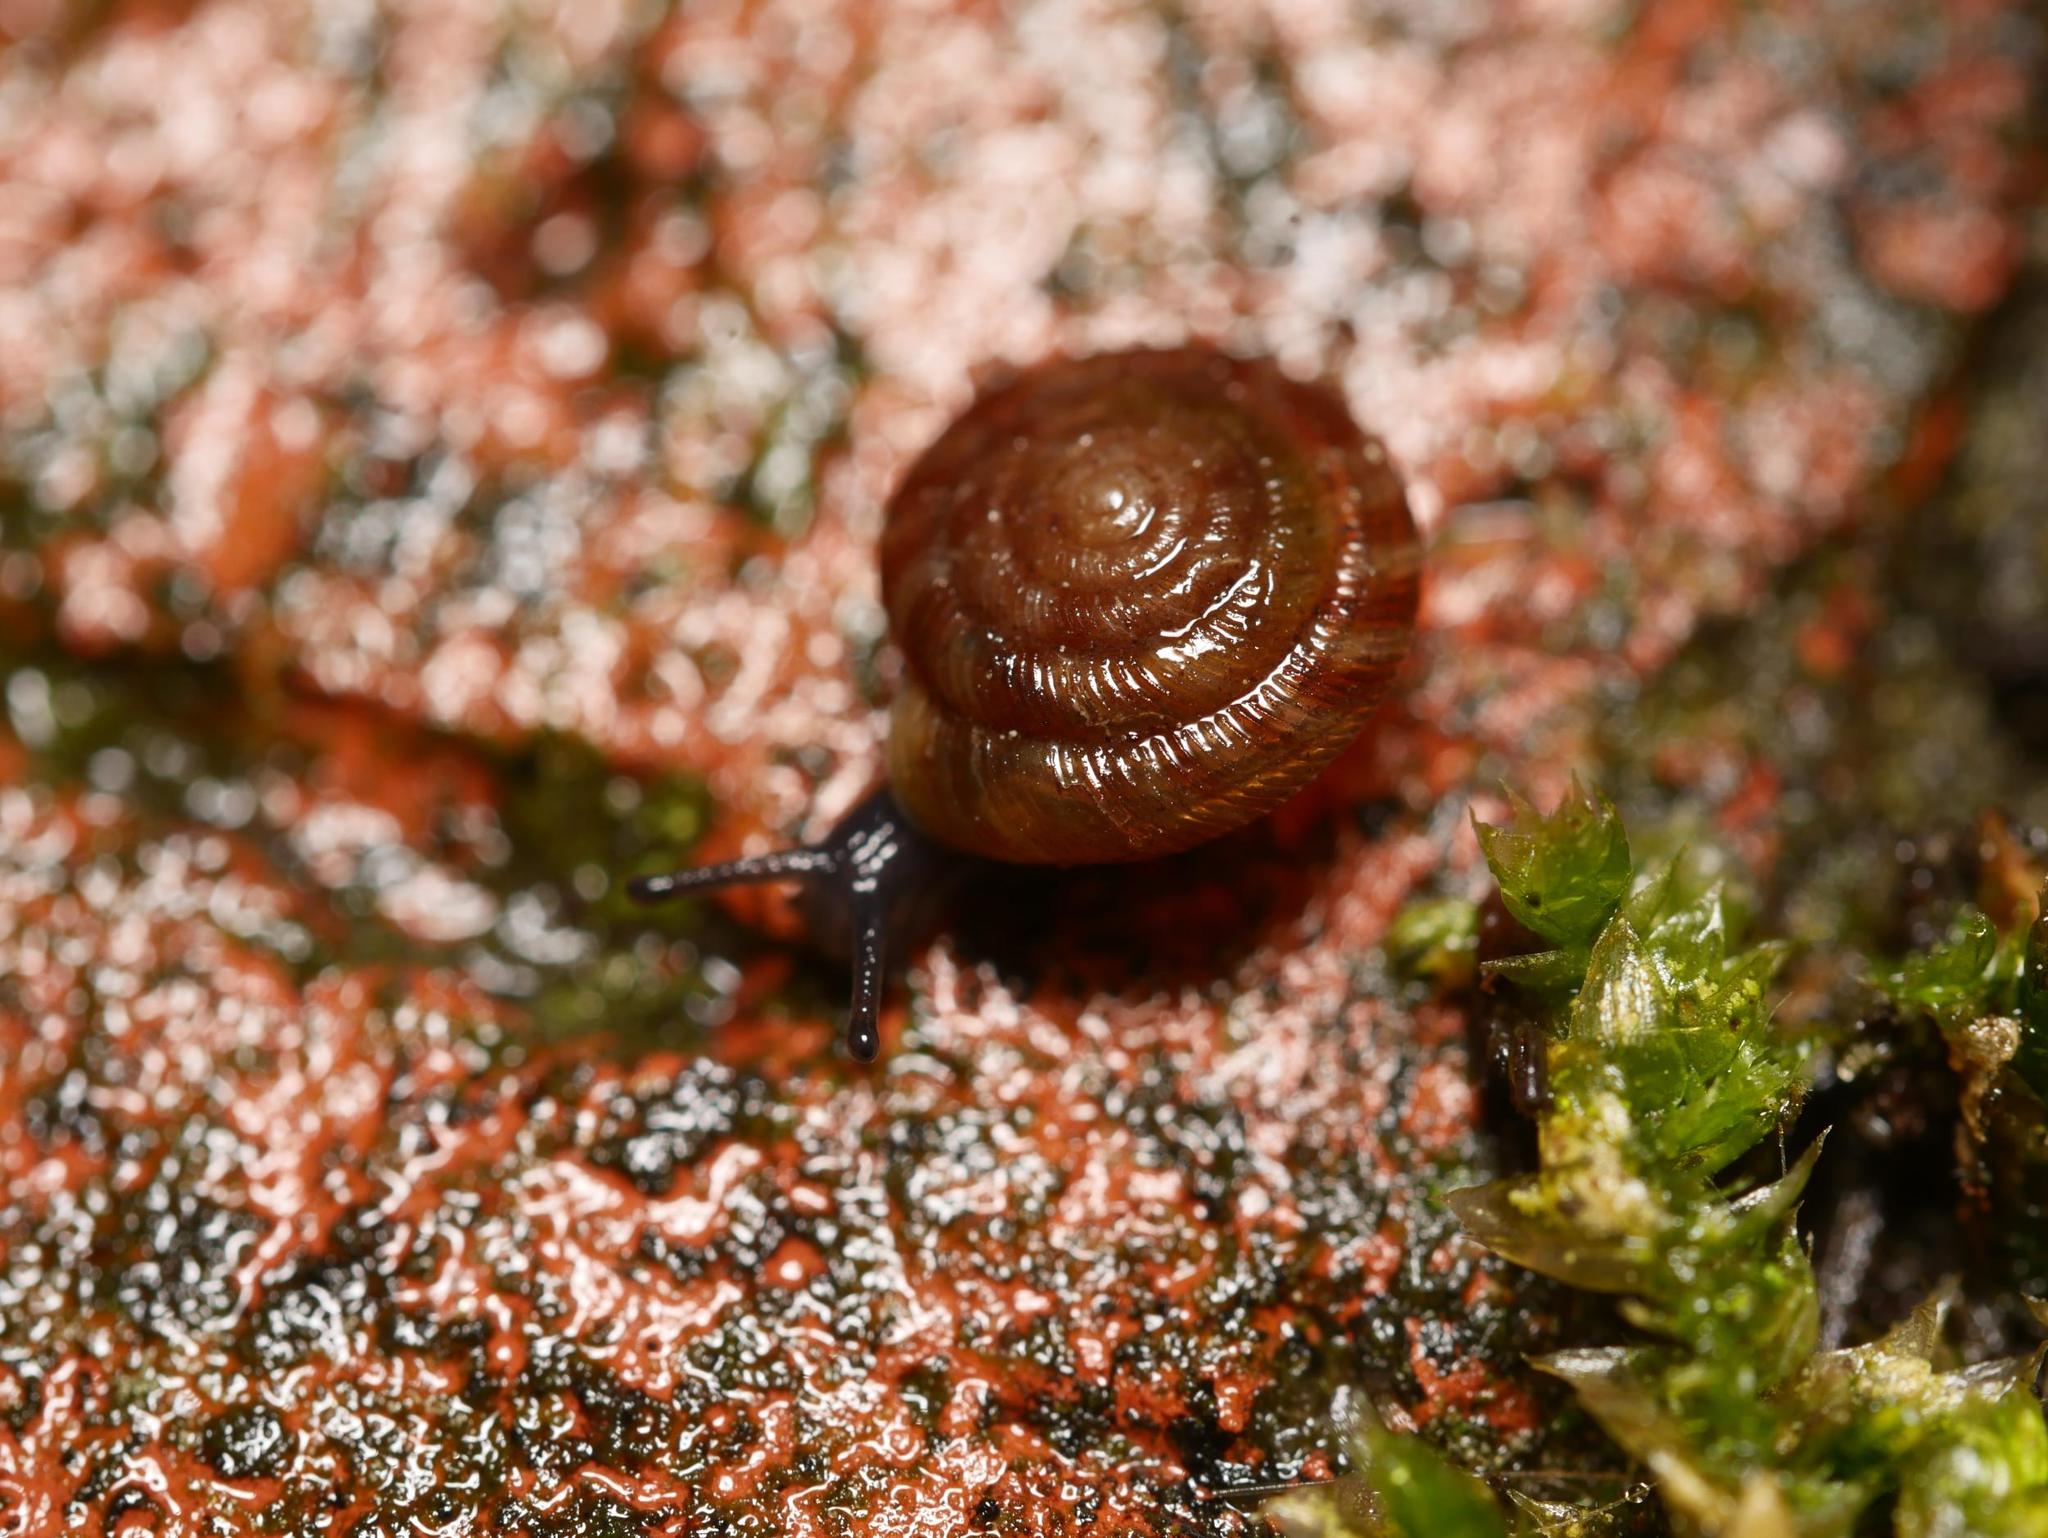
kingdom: Animalia
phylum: Mollusca
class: Gastropoda
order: Stylommatophora
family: Discidae
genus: Discus
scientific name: Discus rotundatus
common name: Rounded snail
